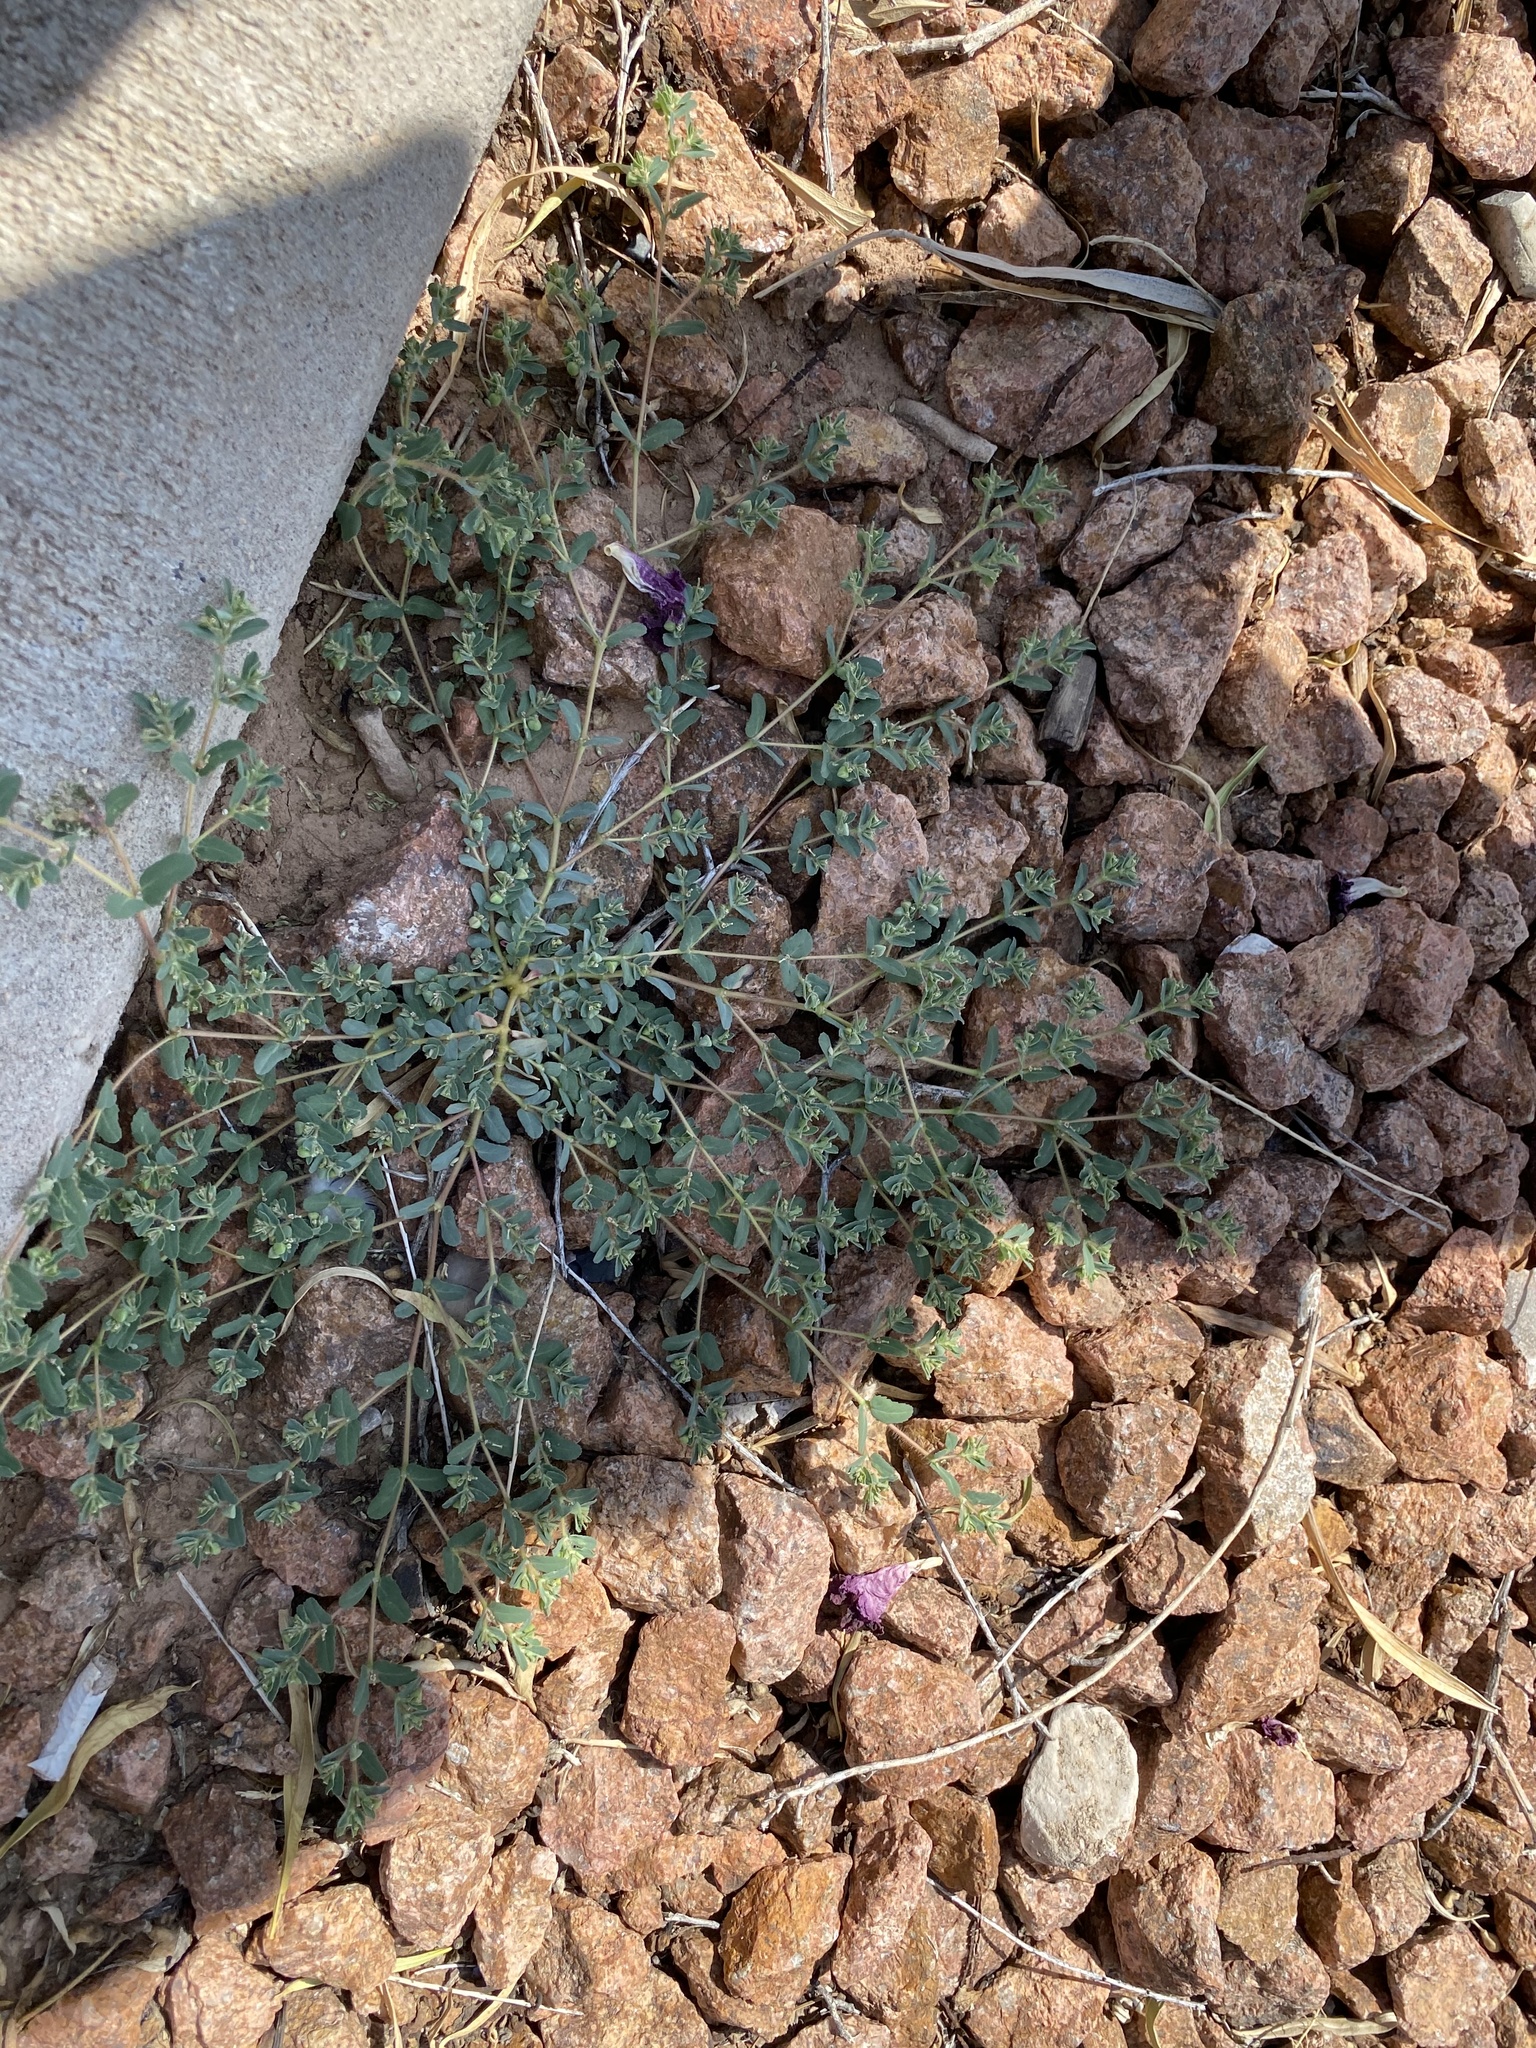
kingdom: Plantae
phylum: Tracheophyta
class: Magnoliopsida
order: Malpighiales
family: Euphorbiaceae
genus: Euphorbia
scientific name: Euphorbia serrula
